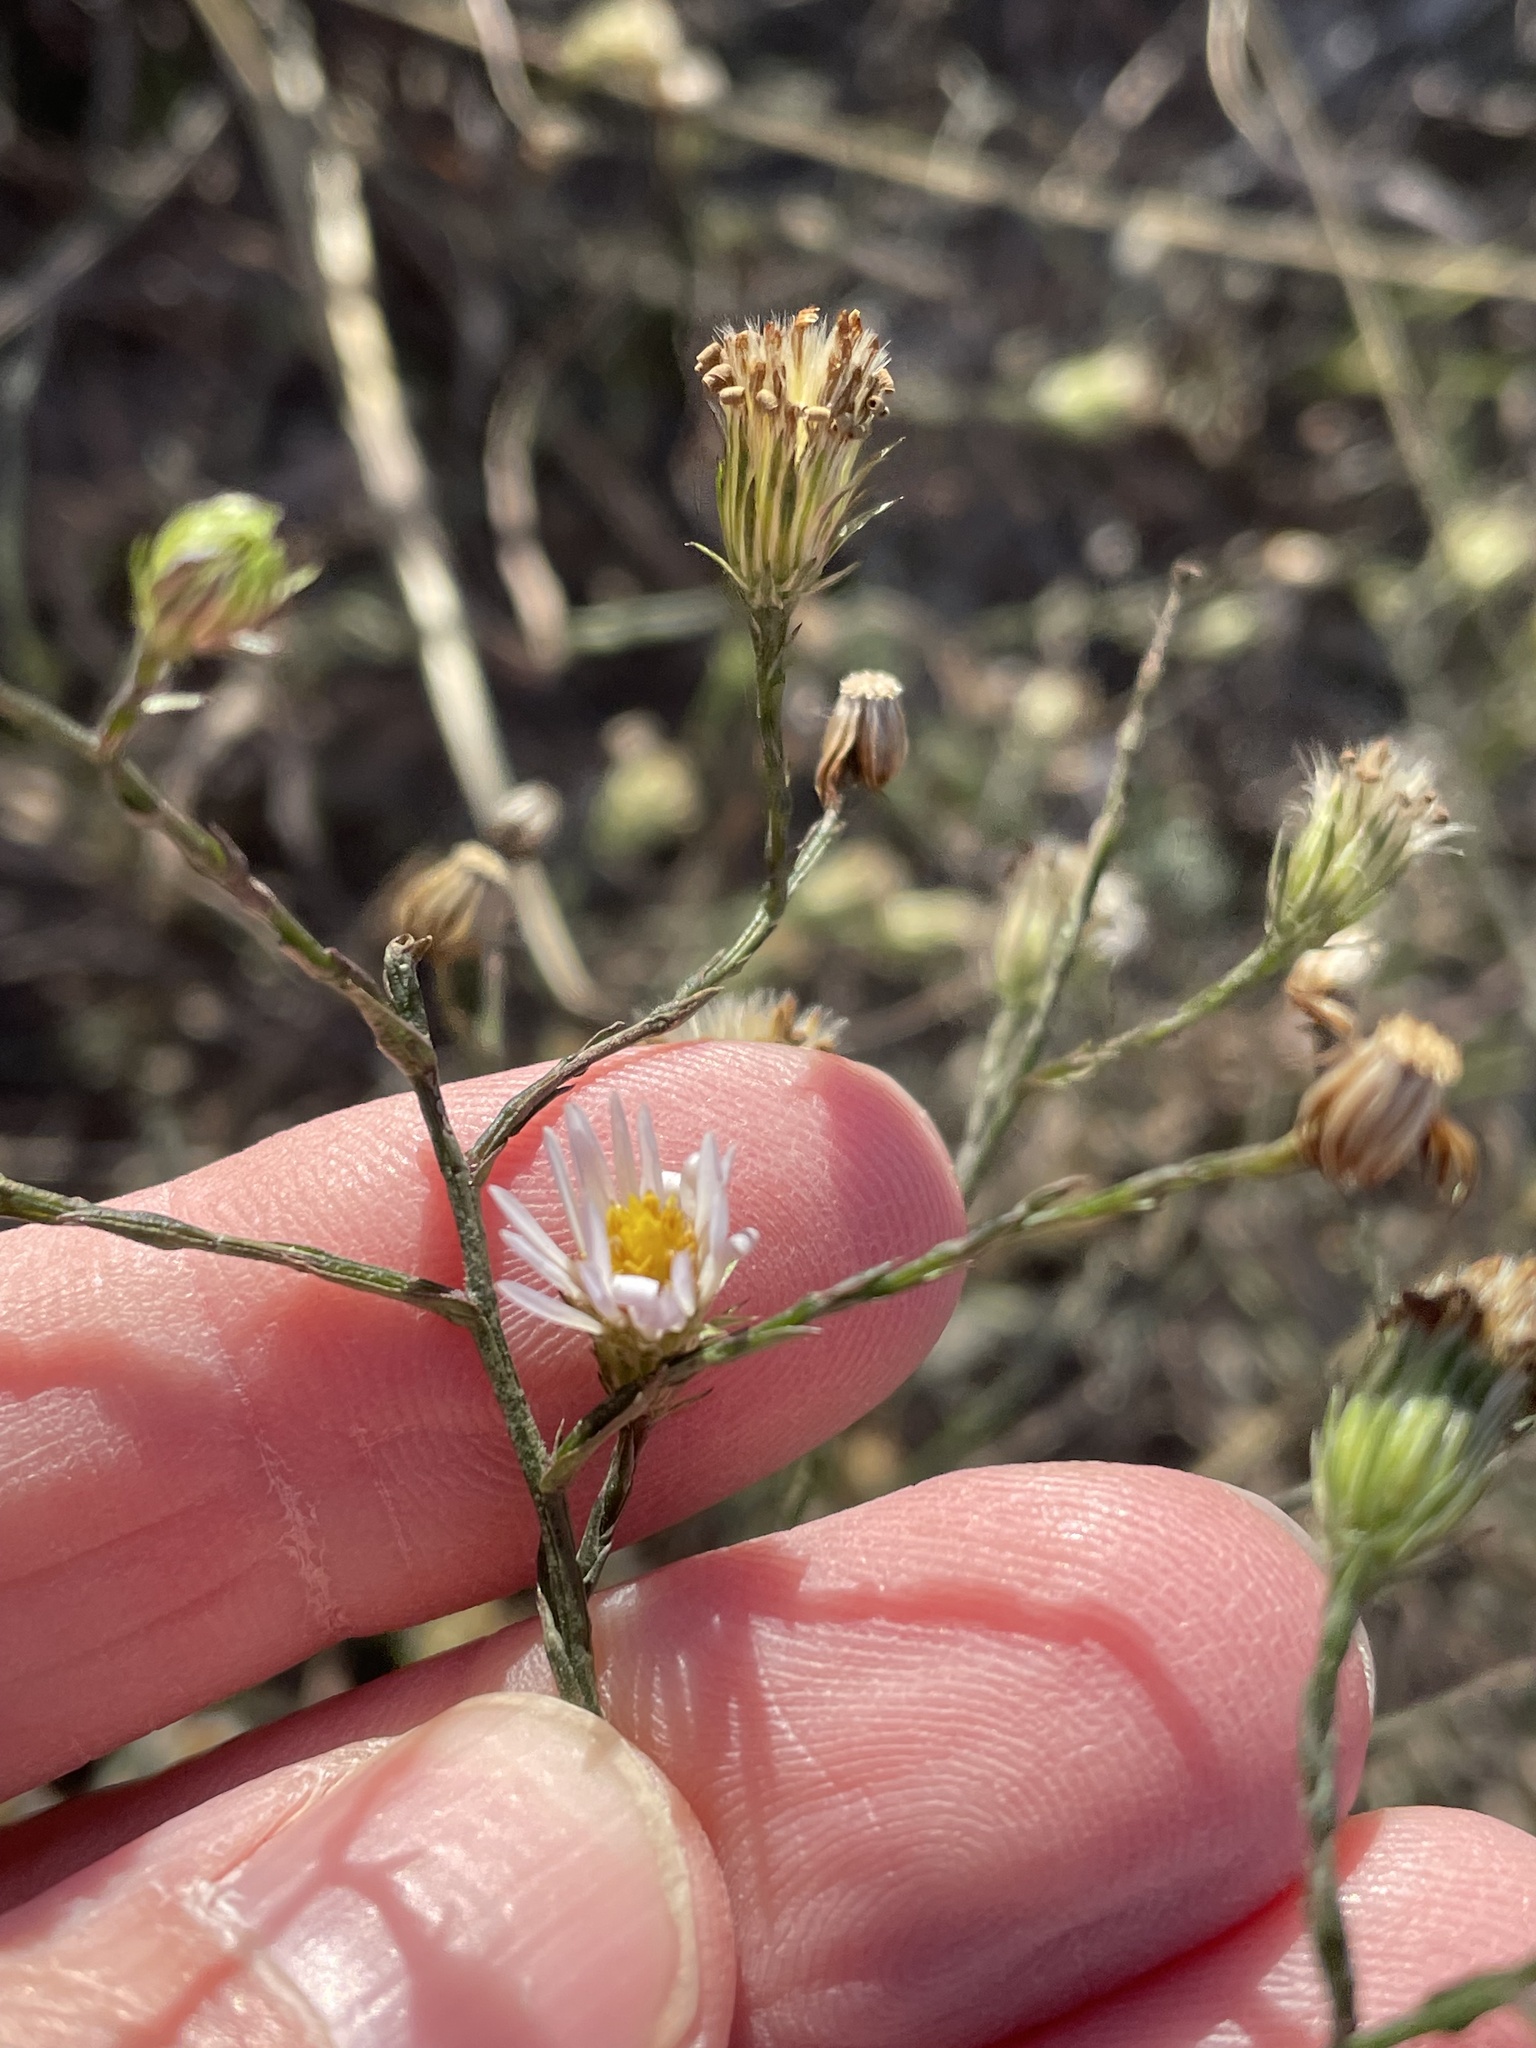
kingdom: Plantae
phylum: Tracheophyta
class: Magnoliopsida
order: Asterales
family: Asteraceae
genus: Symphyotrichum
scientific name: Symphyotrichum divaricatum
